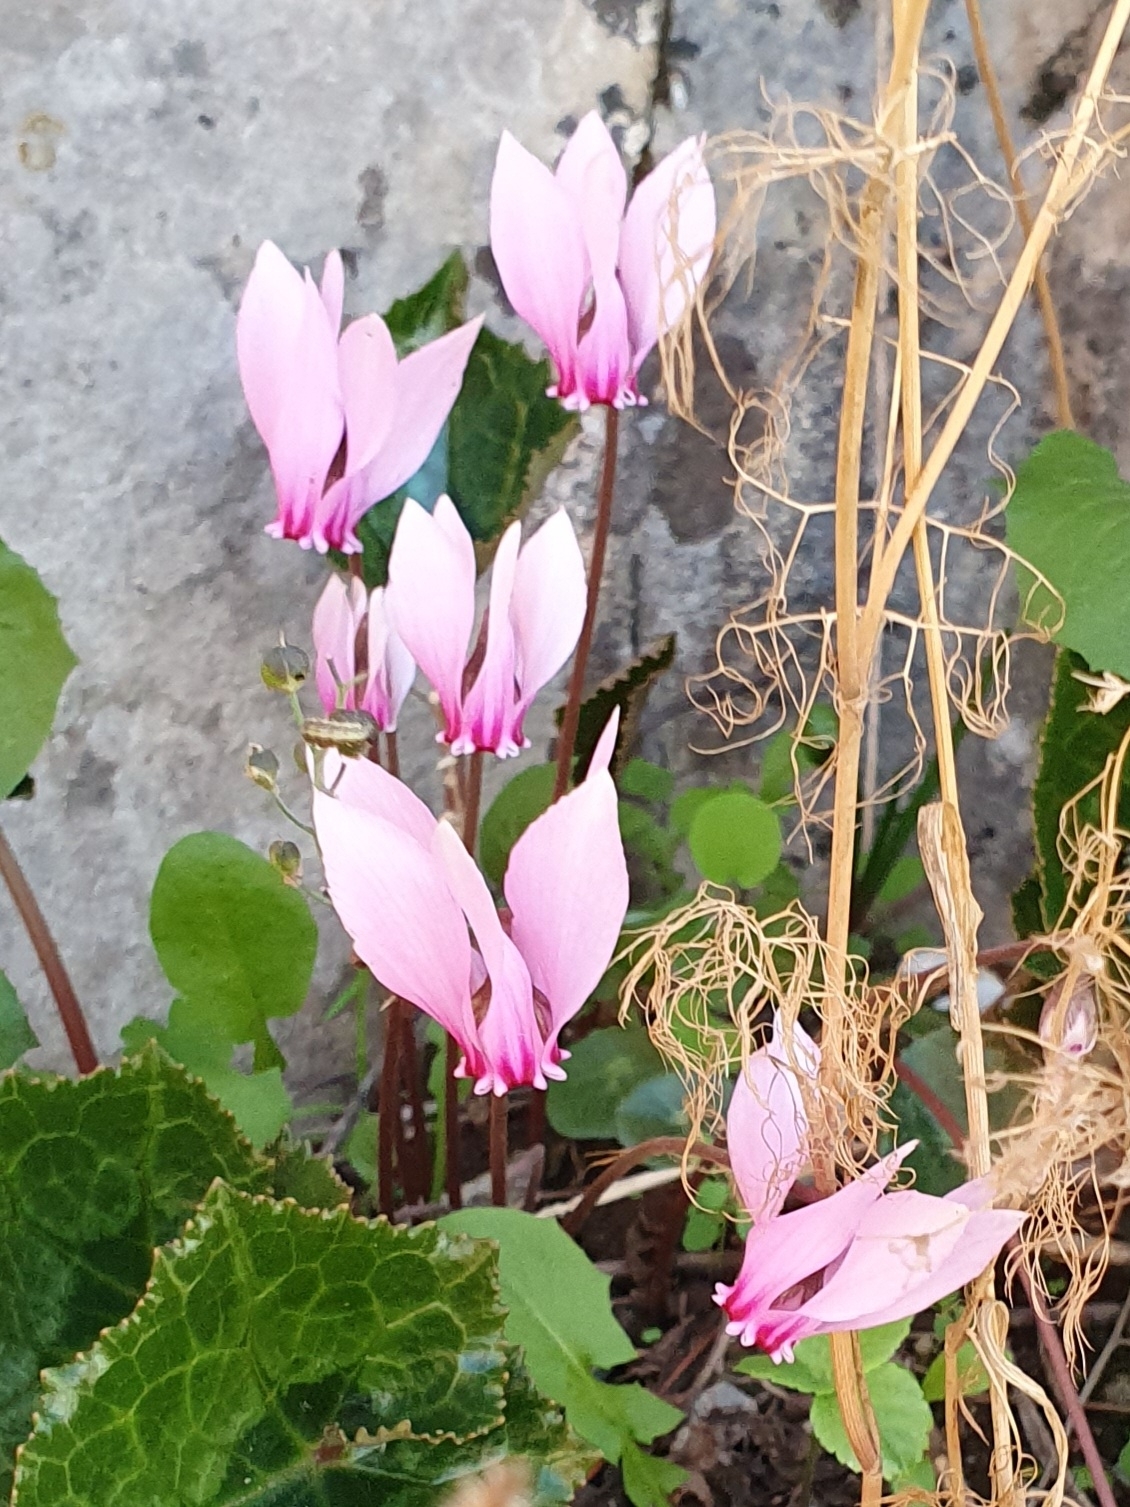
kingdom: Plantae
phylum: Tracheophyta
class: Magnoliopsida
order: Ericales
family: Primulaceae
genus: Cyclamen
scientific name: Cyclamen africanum
